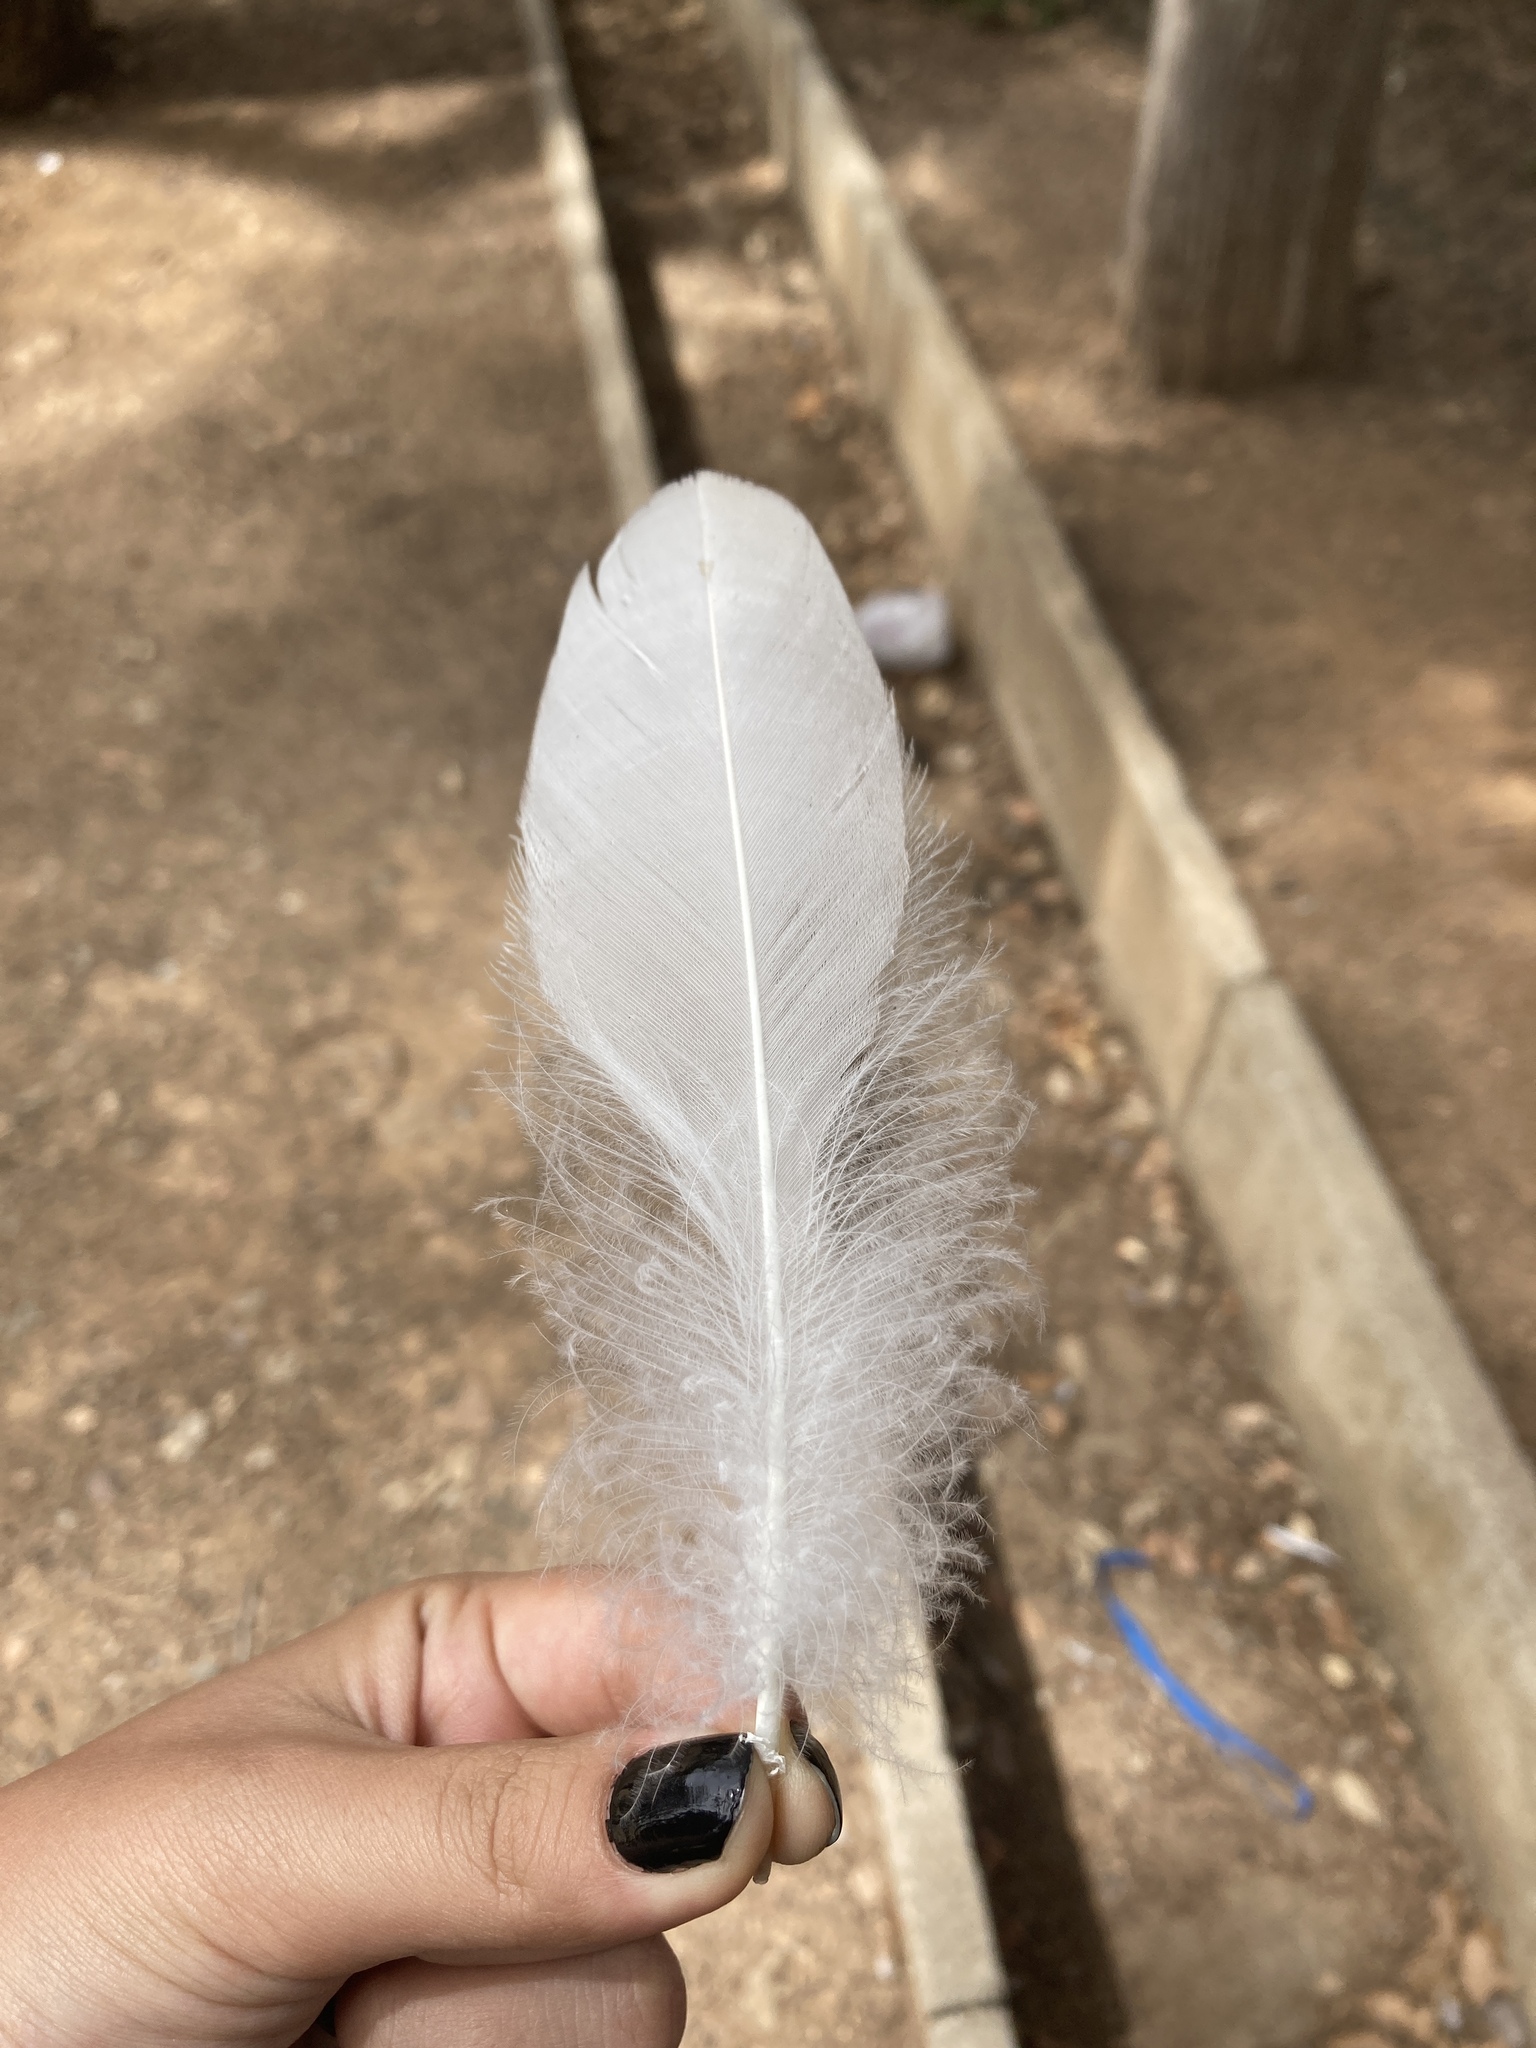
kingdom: Animalia
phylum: Chordata
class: Aves
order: Anseriformes
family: Anatidae
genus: Anser
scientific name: Anser anser
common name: Greylag goose
